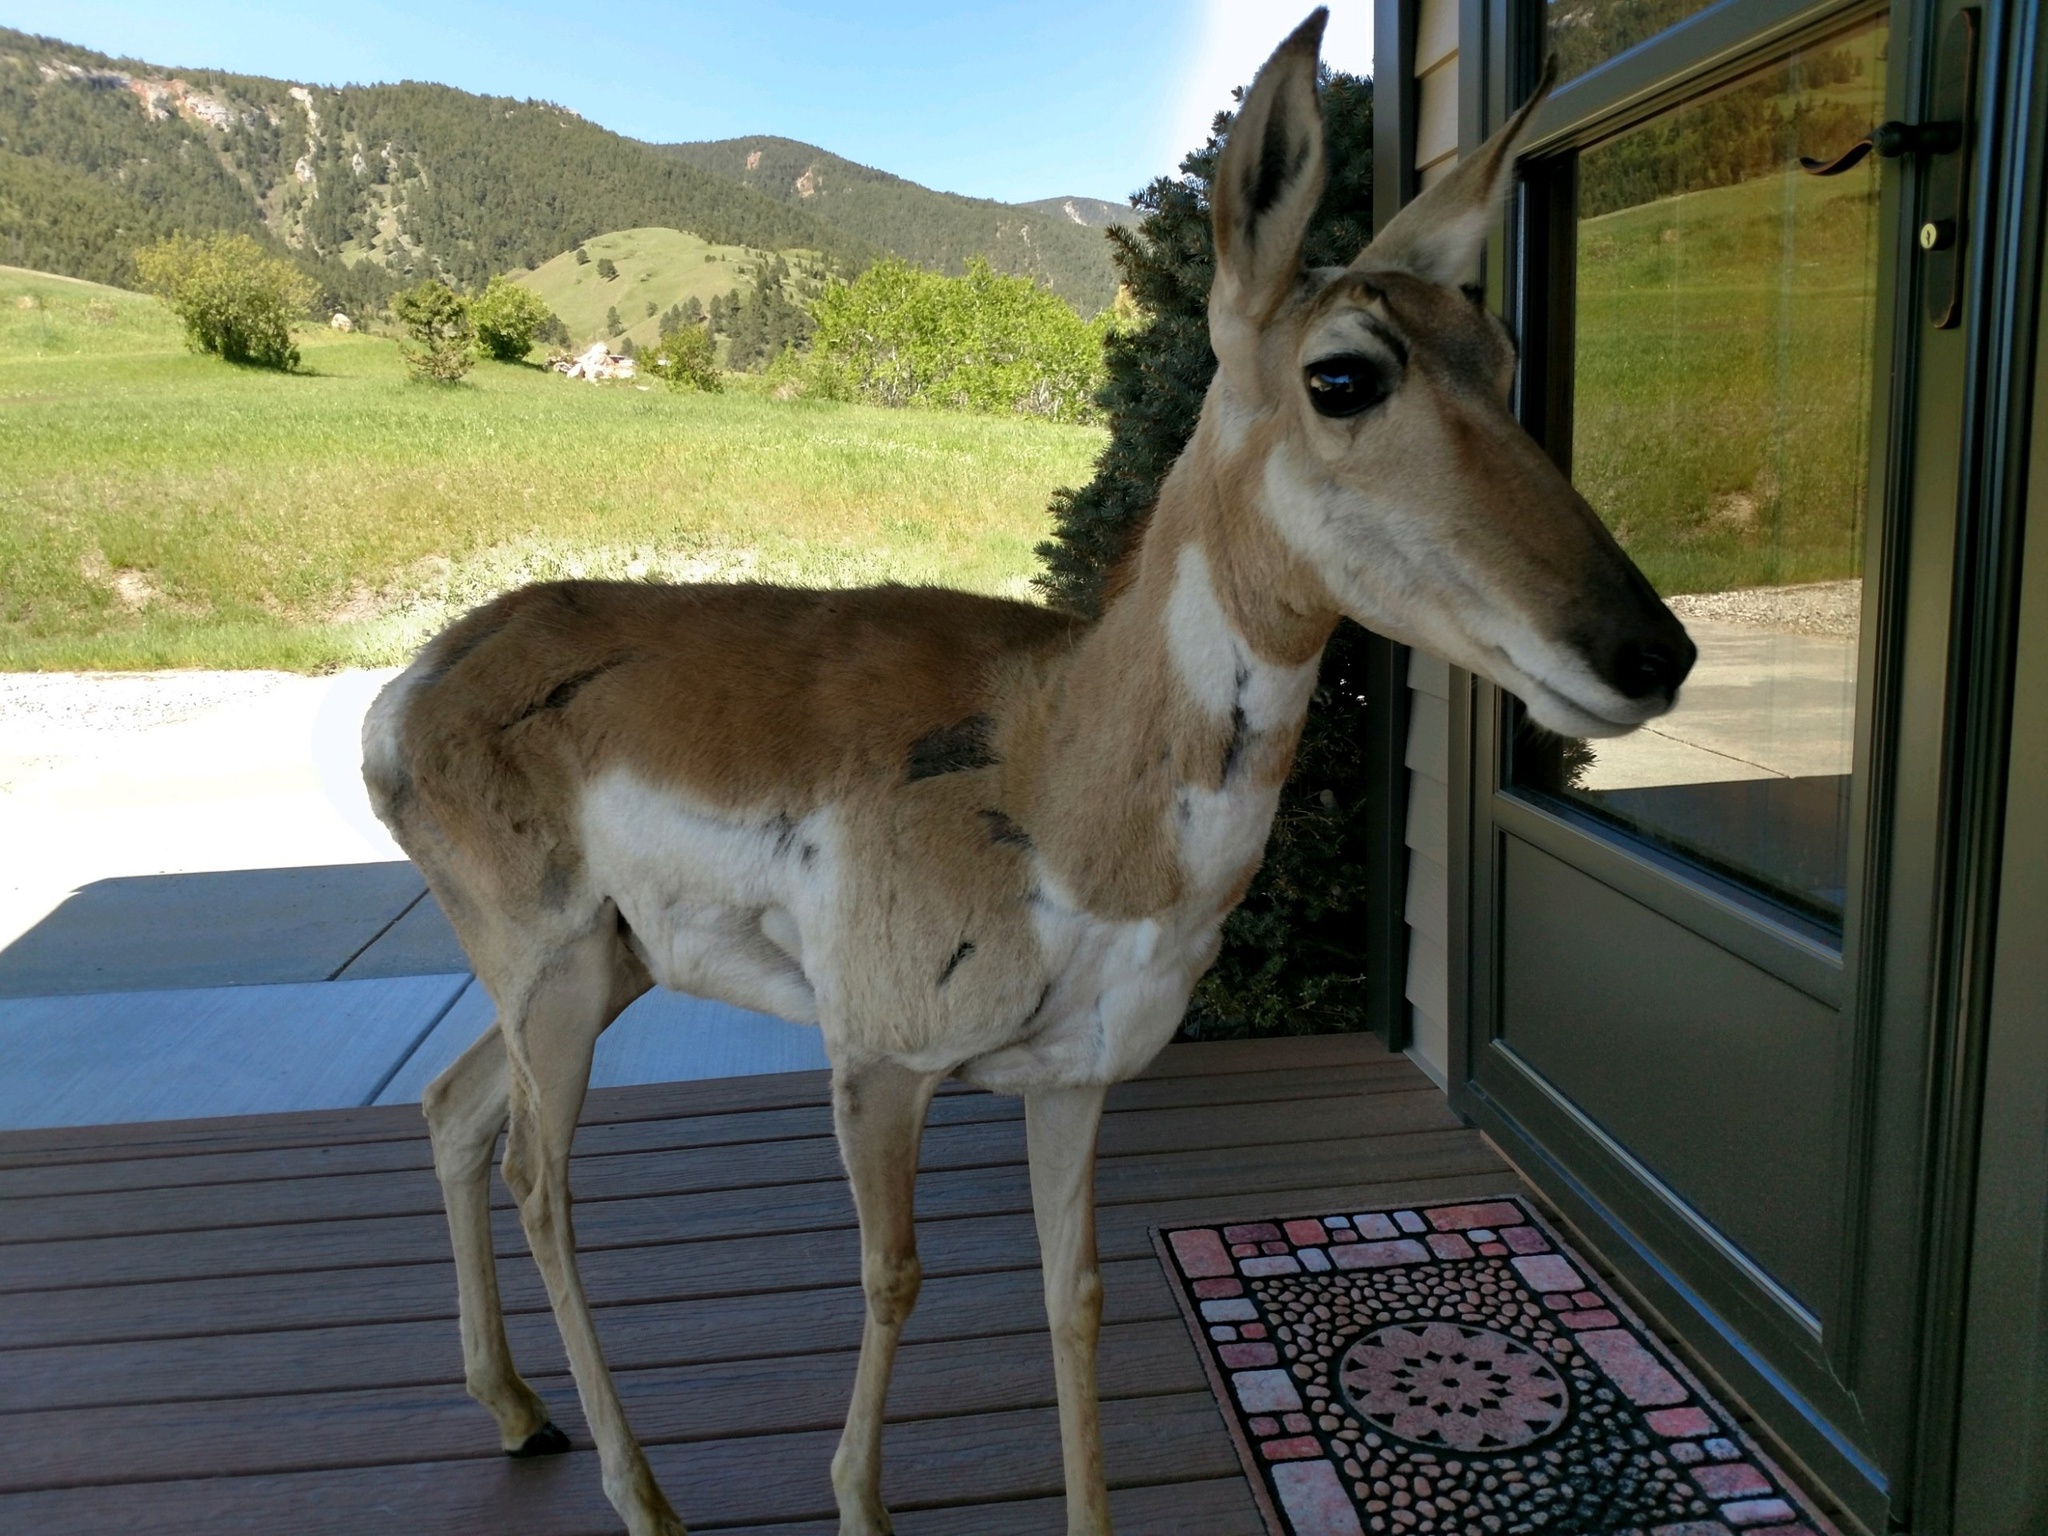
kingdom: Animalia
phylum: Chordata
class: Mammalia
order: Artiodactyla
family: Antilocapridae
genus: Antilocapra
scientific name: Antilocapra americana
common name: Pronghorn
